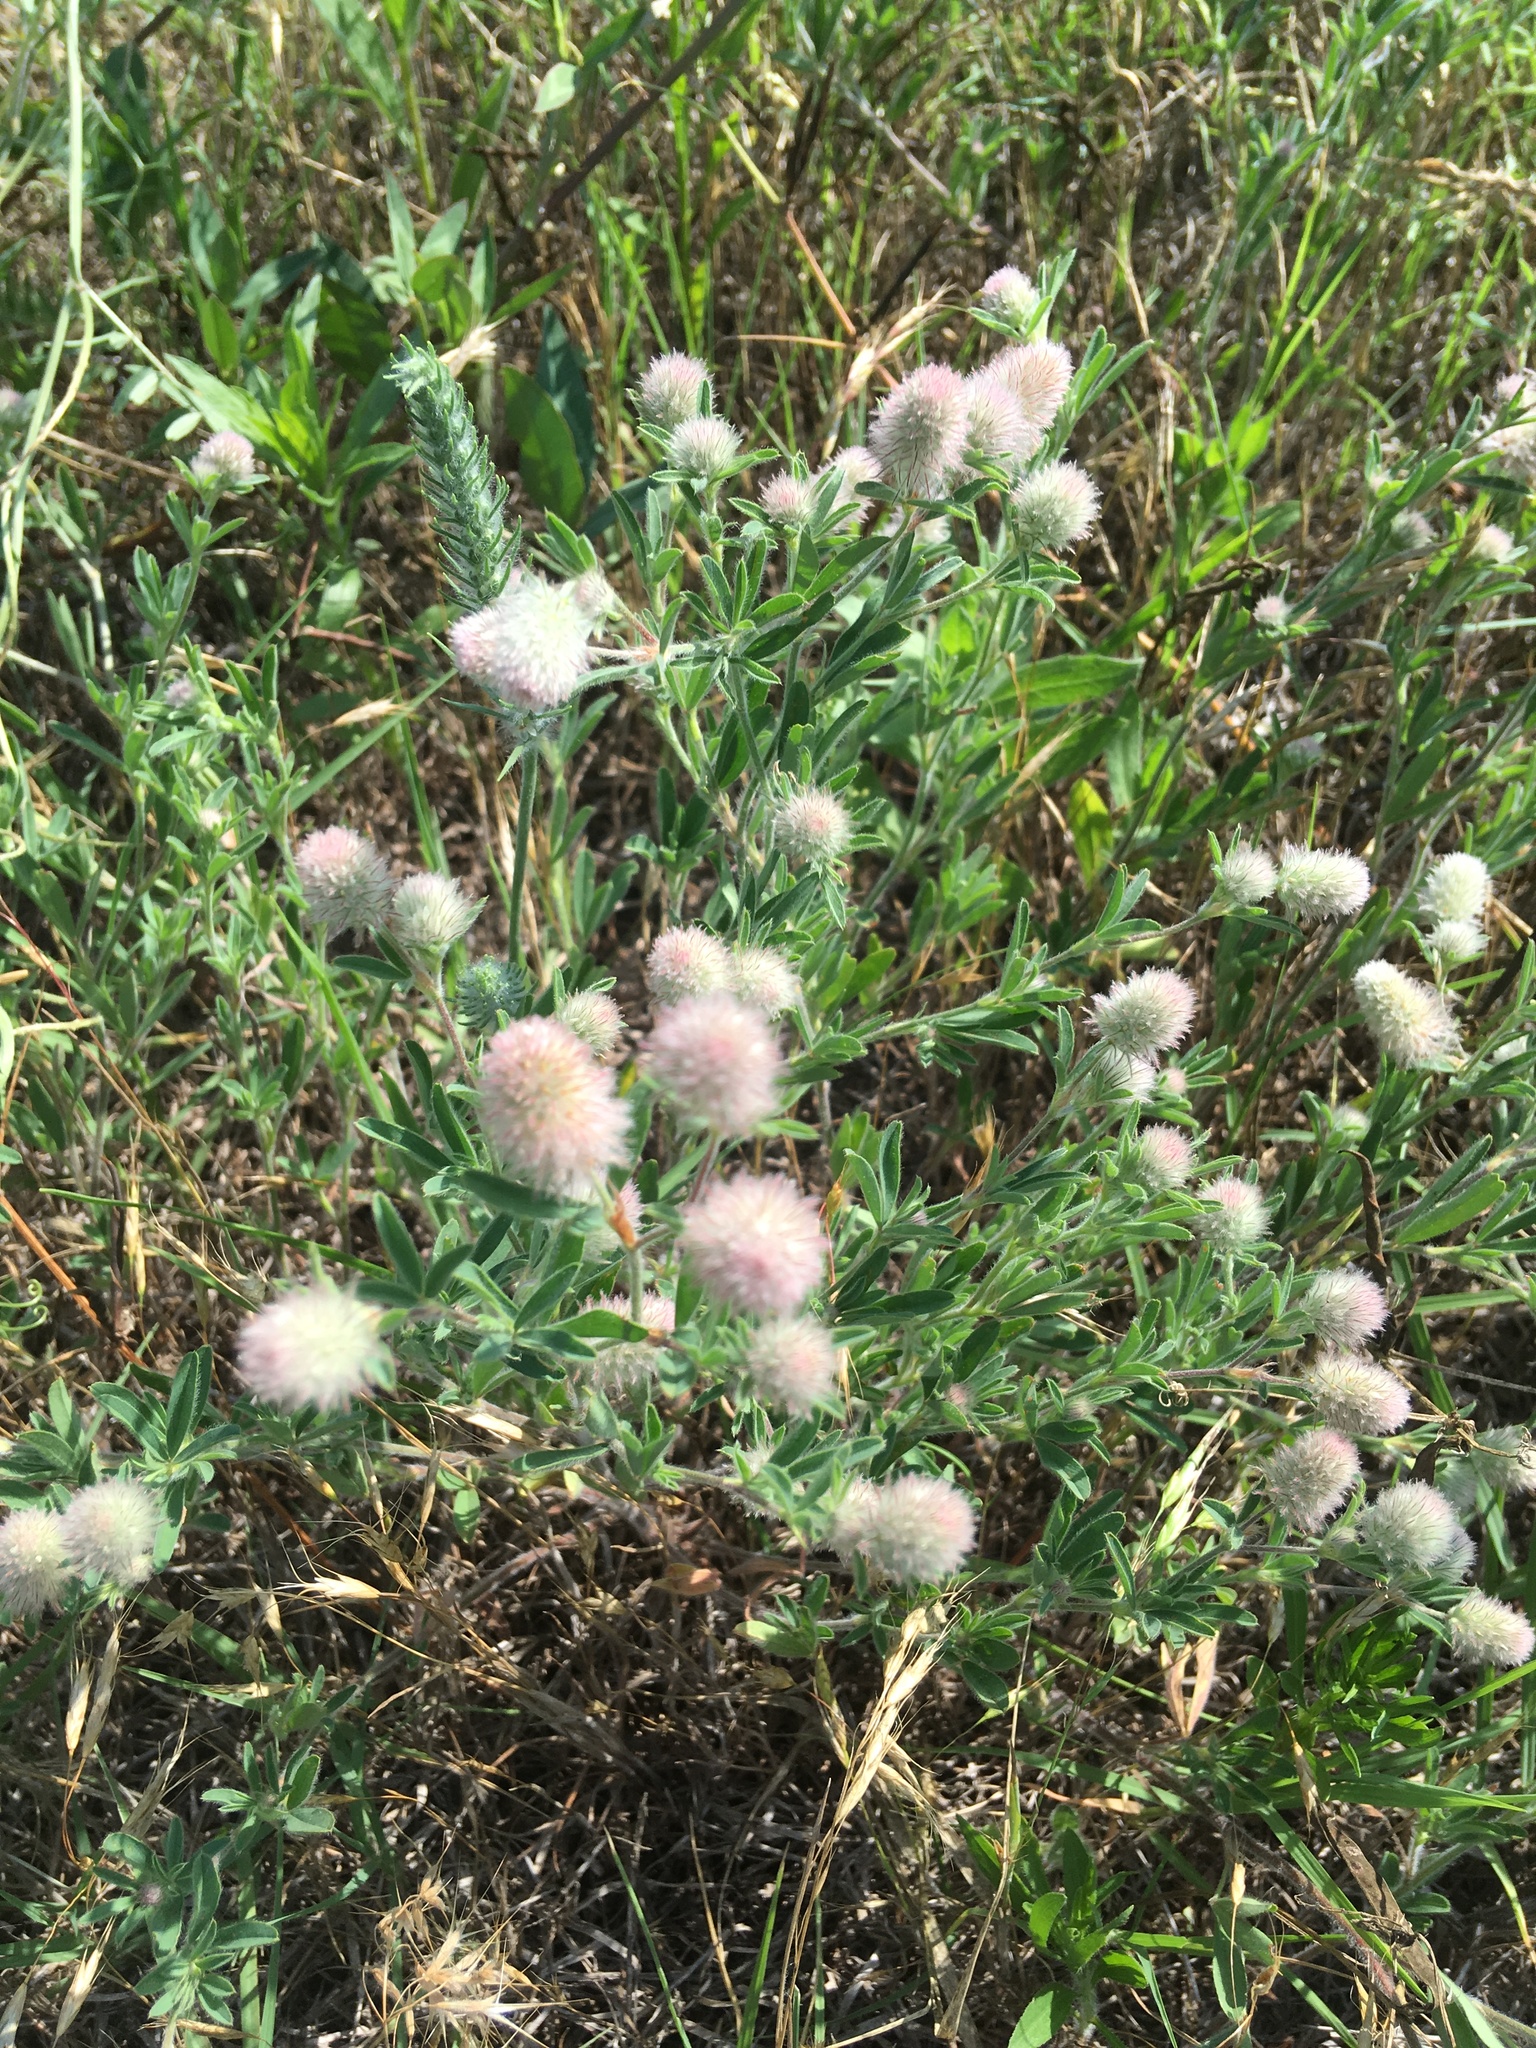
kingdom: Plantae
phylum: Tracheophyta
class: Magnoliopsida
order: Fabales
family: Fabaceae
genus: Trifolium
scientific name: Trifolium arvense
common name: Hare's-foot clover
